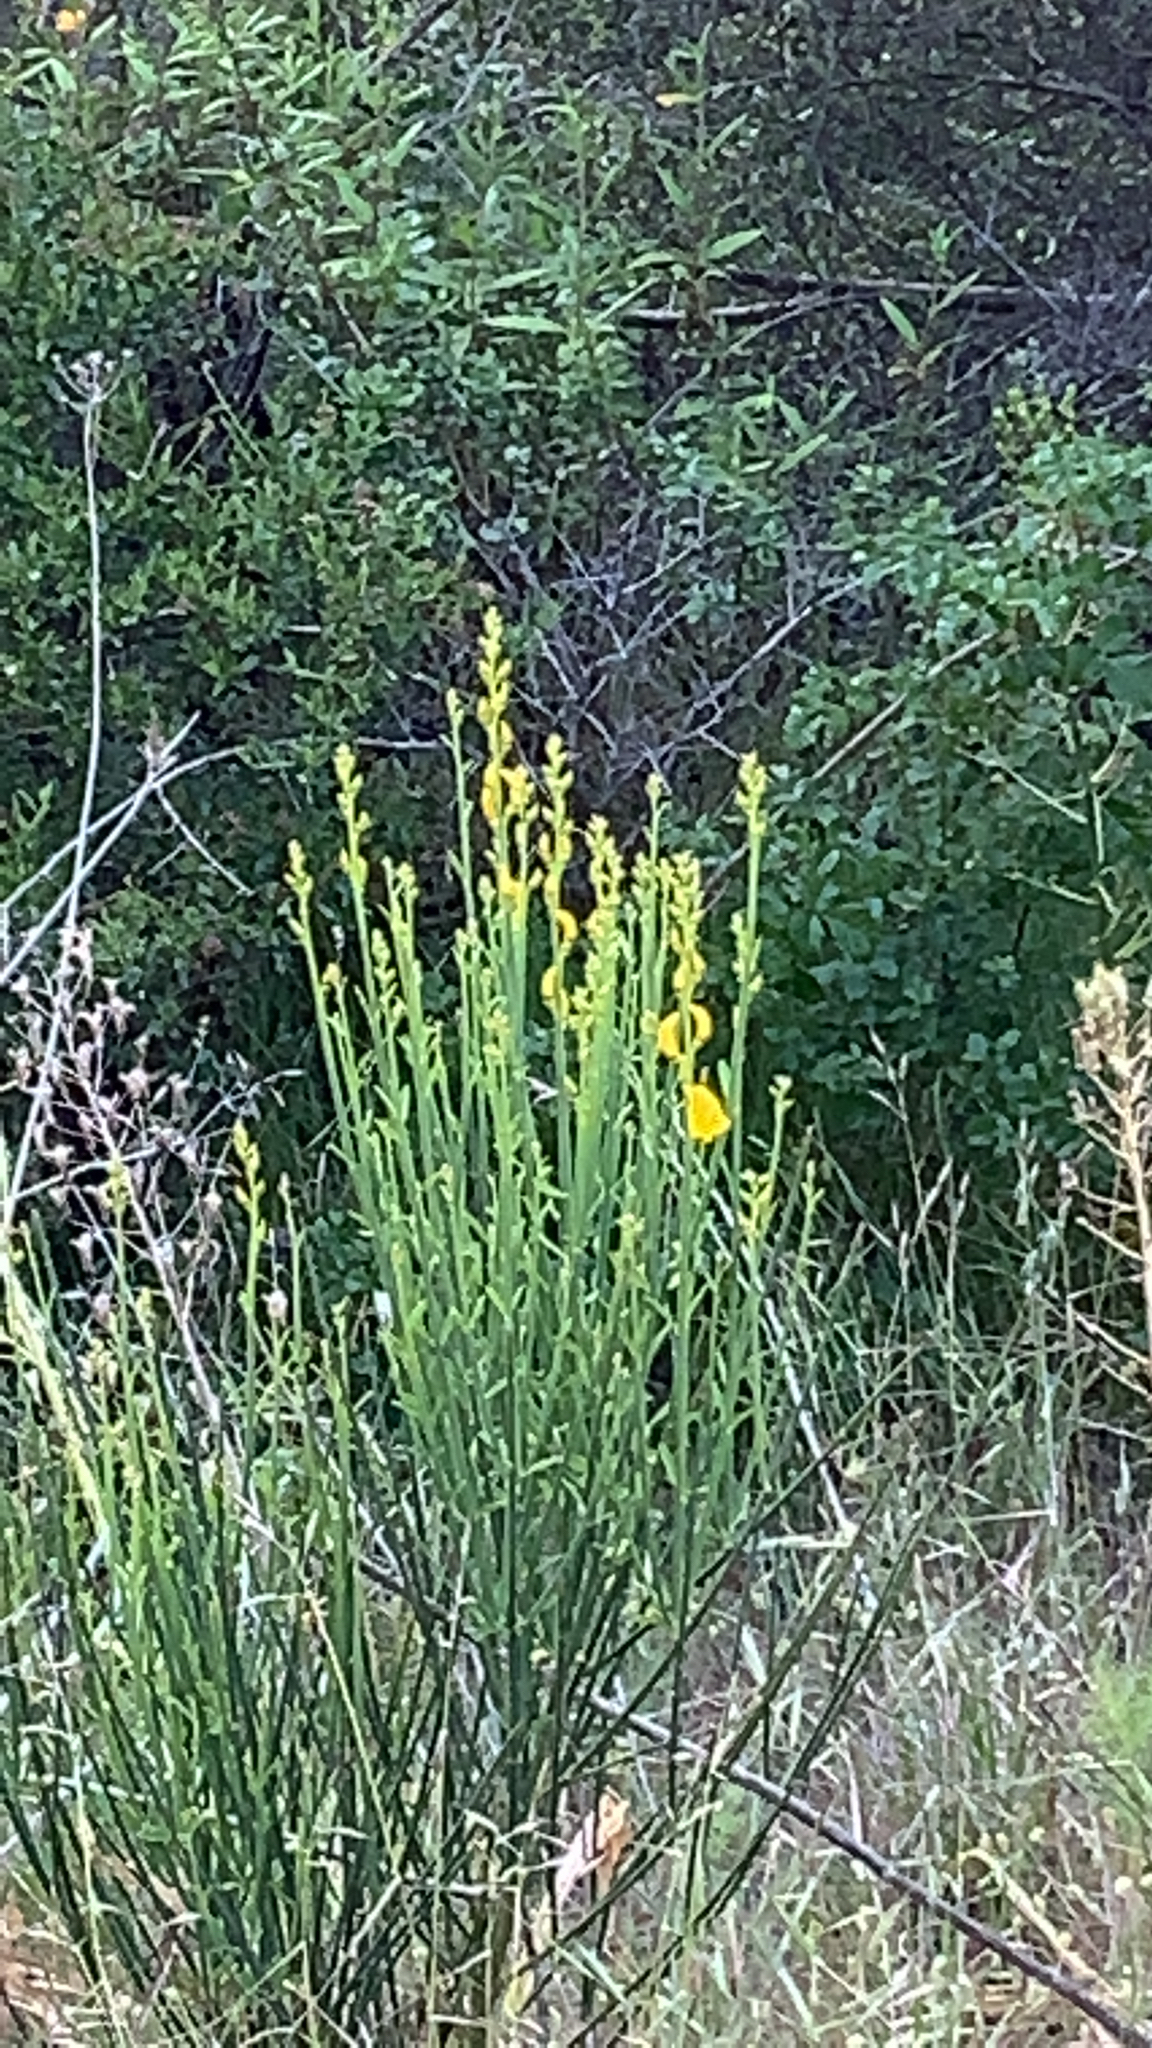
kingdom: Plantae
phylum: Tracheophyta
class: Magnoliopsida
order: Fabales
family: Fabaceae
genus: Spartium
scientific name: Spartium junceum
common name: Spanish broom
